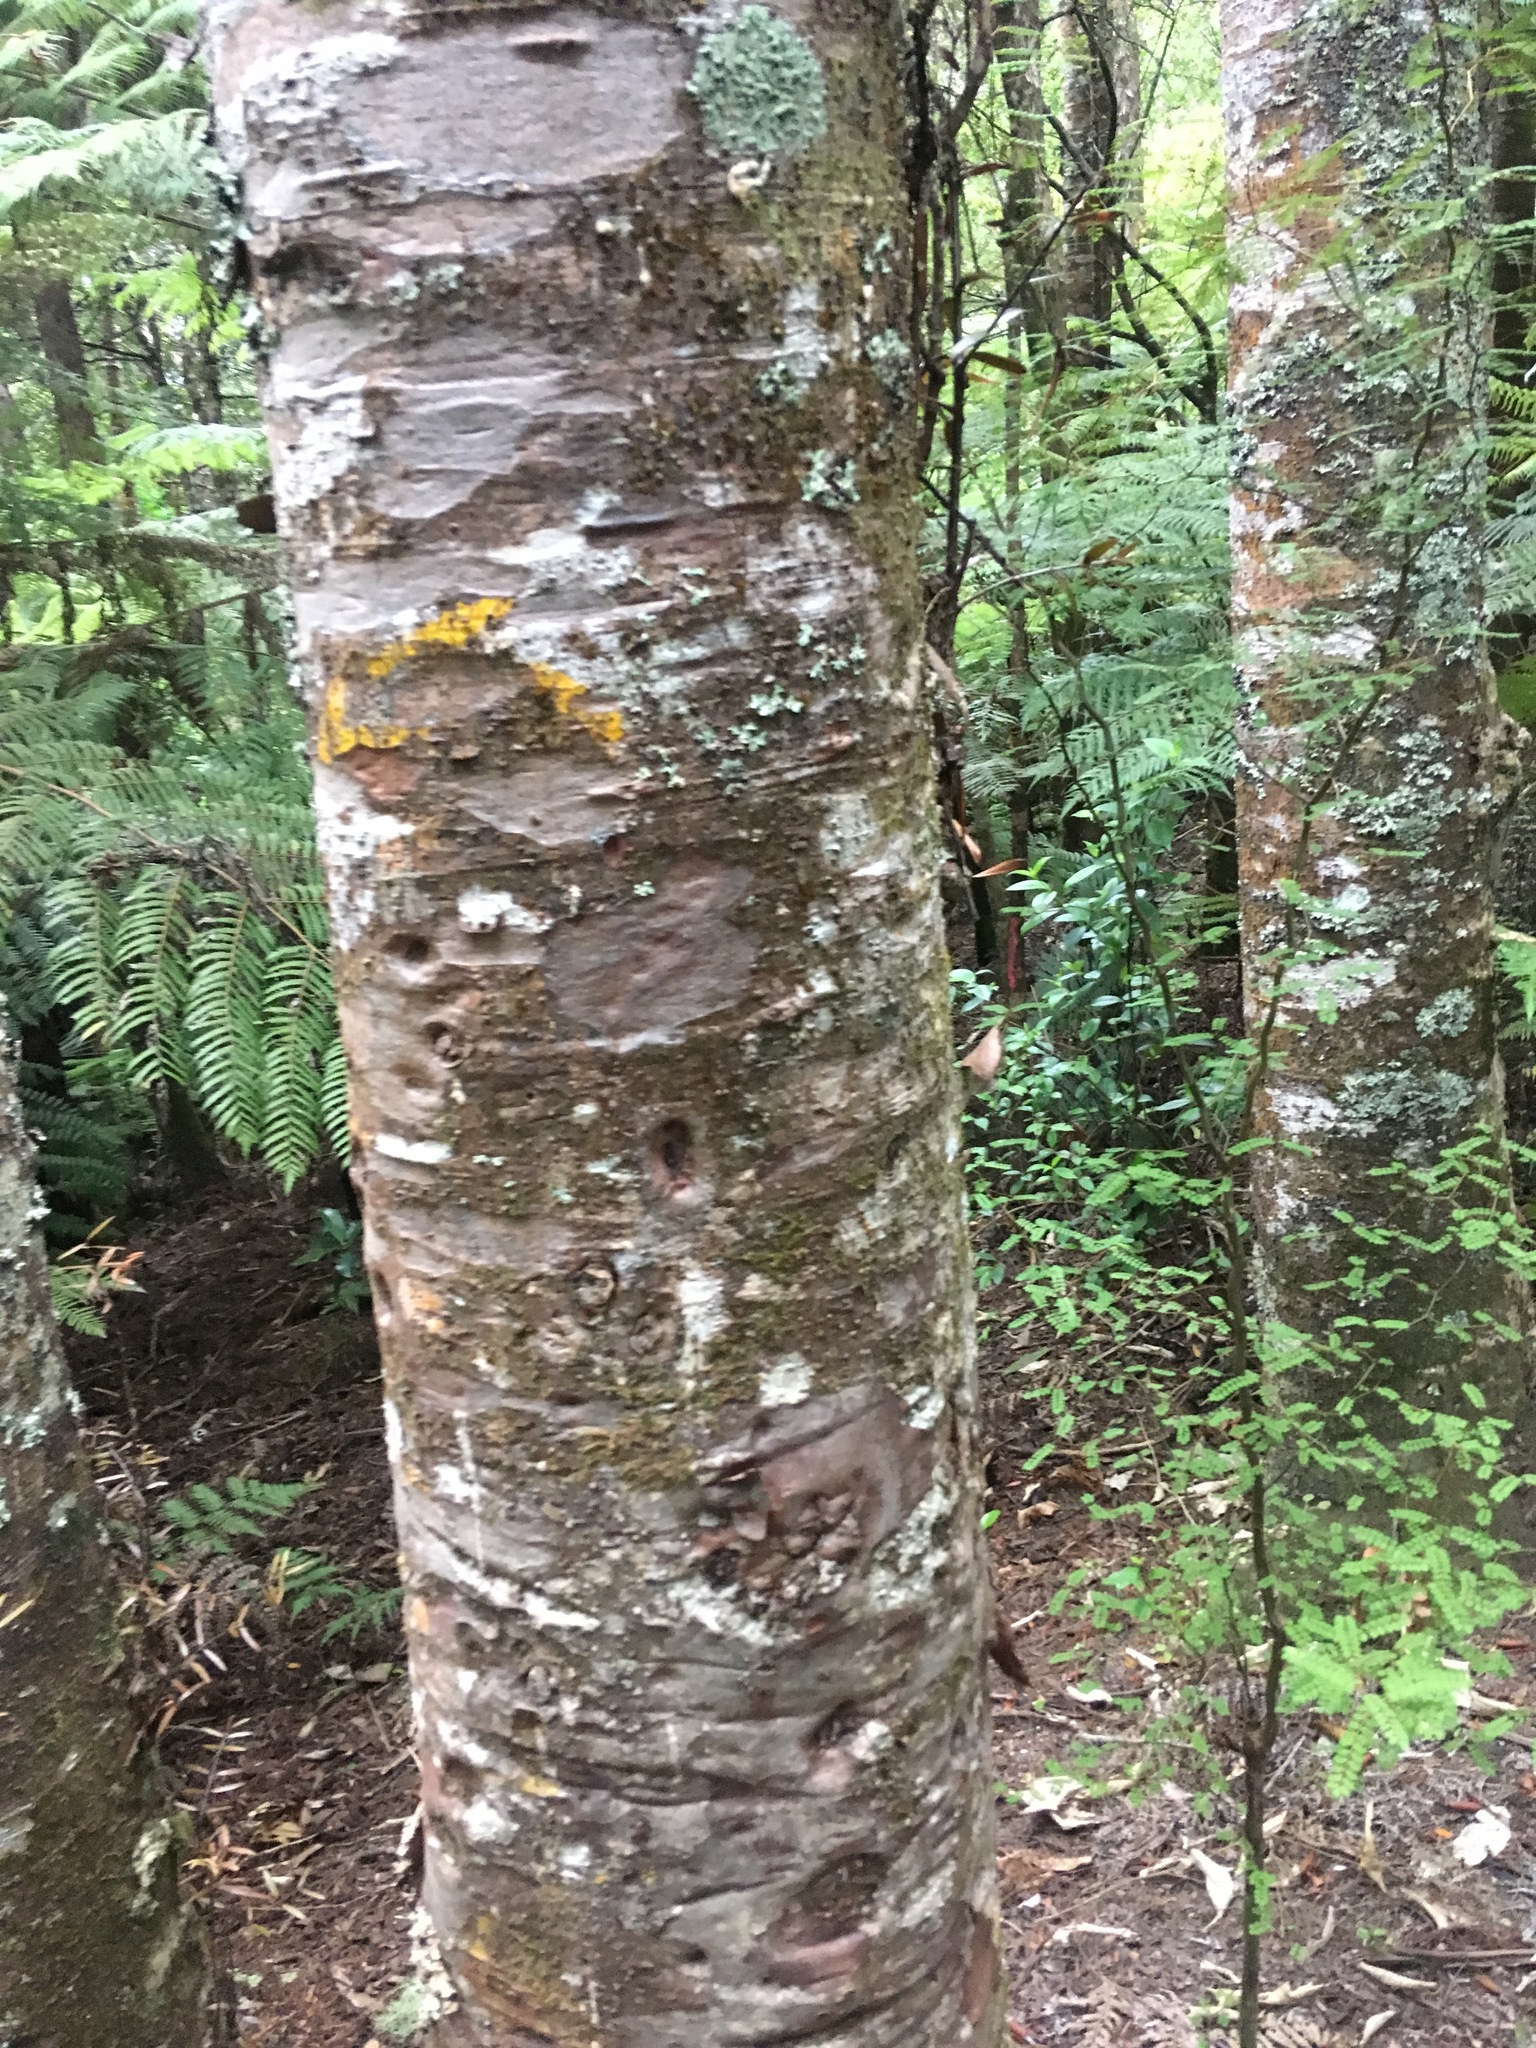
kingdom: Plantae
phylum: Tracheophyta
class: Pinopsida
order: Pinales
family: Araucariaceae
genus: Agathis
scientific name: Agathis australis
